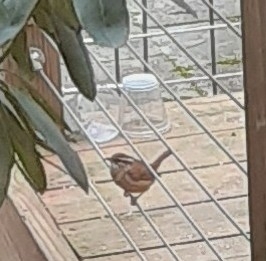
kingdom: Animalia
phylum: Chordata
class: Aves
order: Passeriformes
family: Troglodytidae
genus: Thryothorus
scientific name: Thryothorus ludovicianus
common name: Carolina wren
